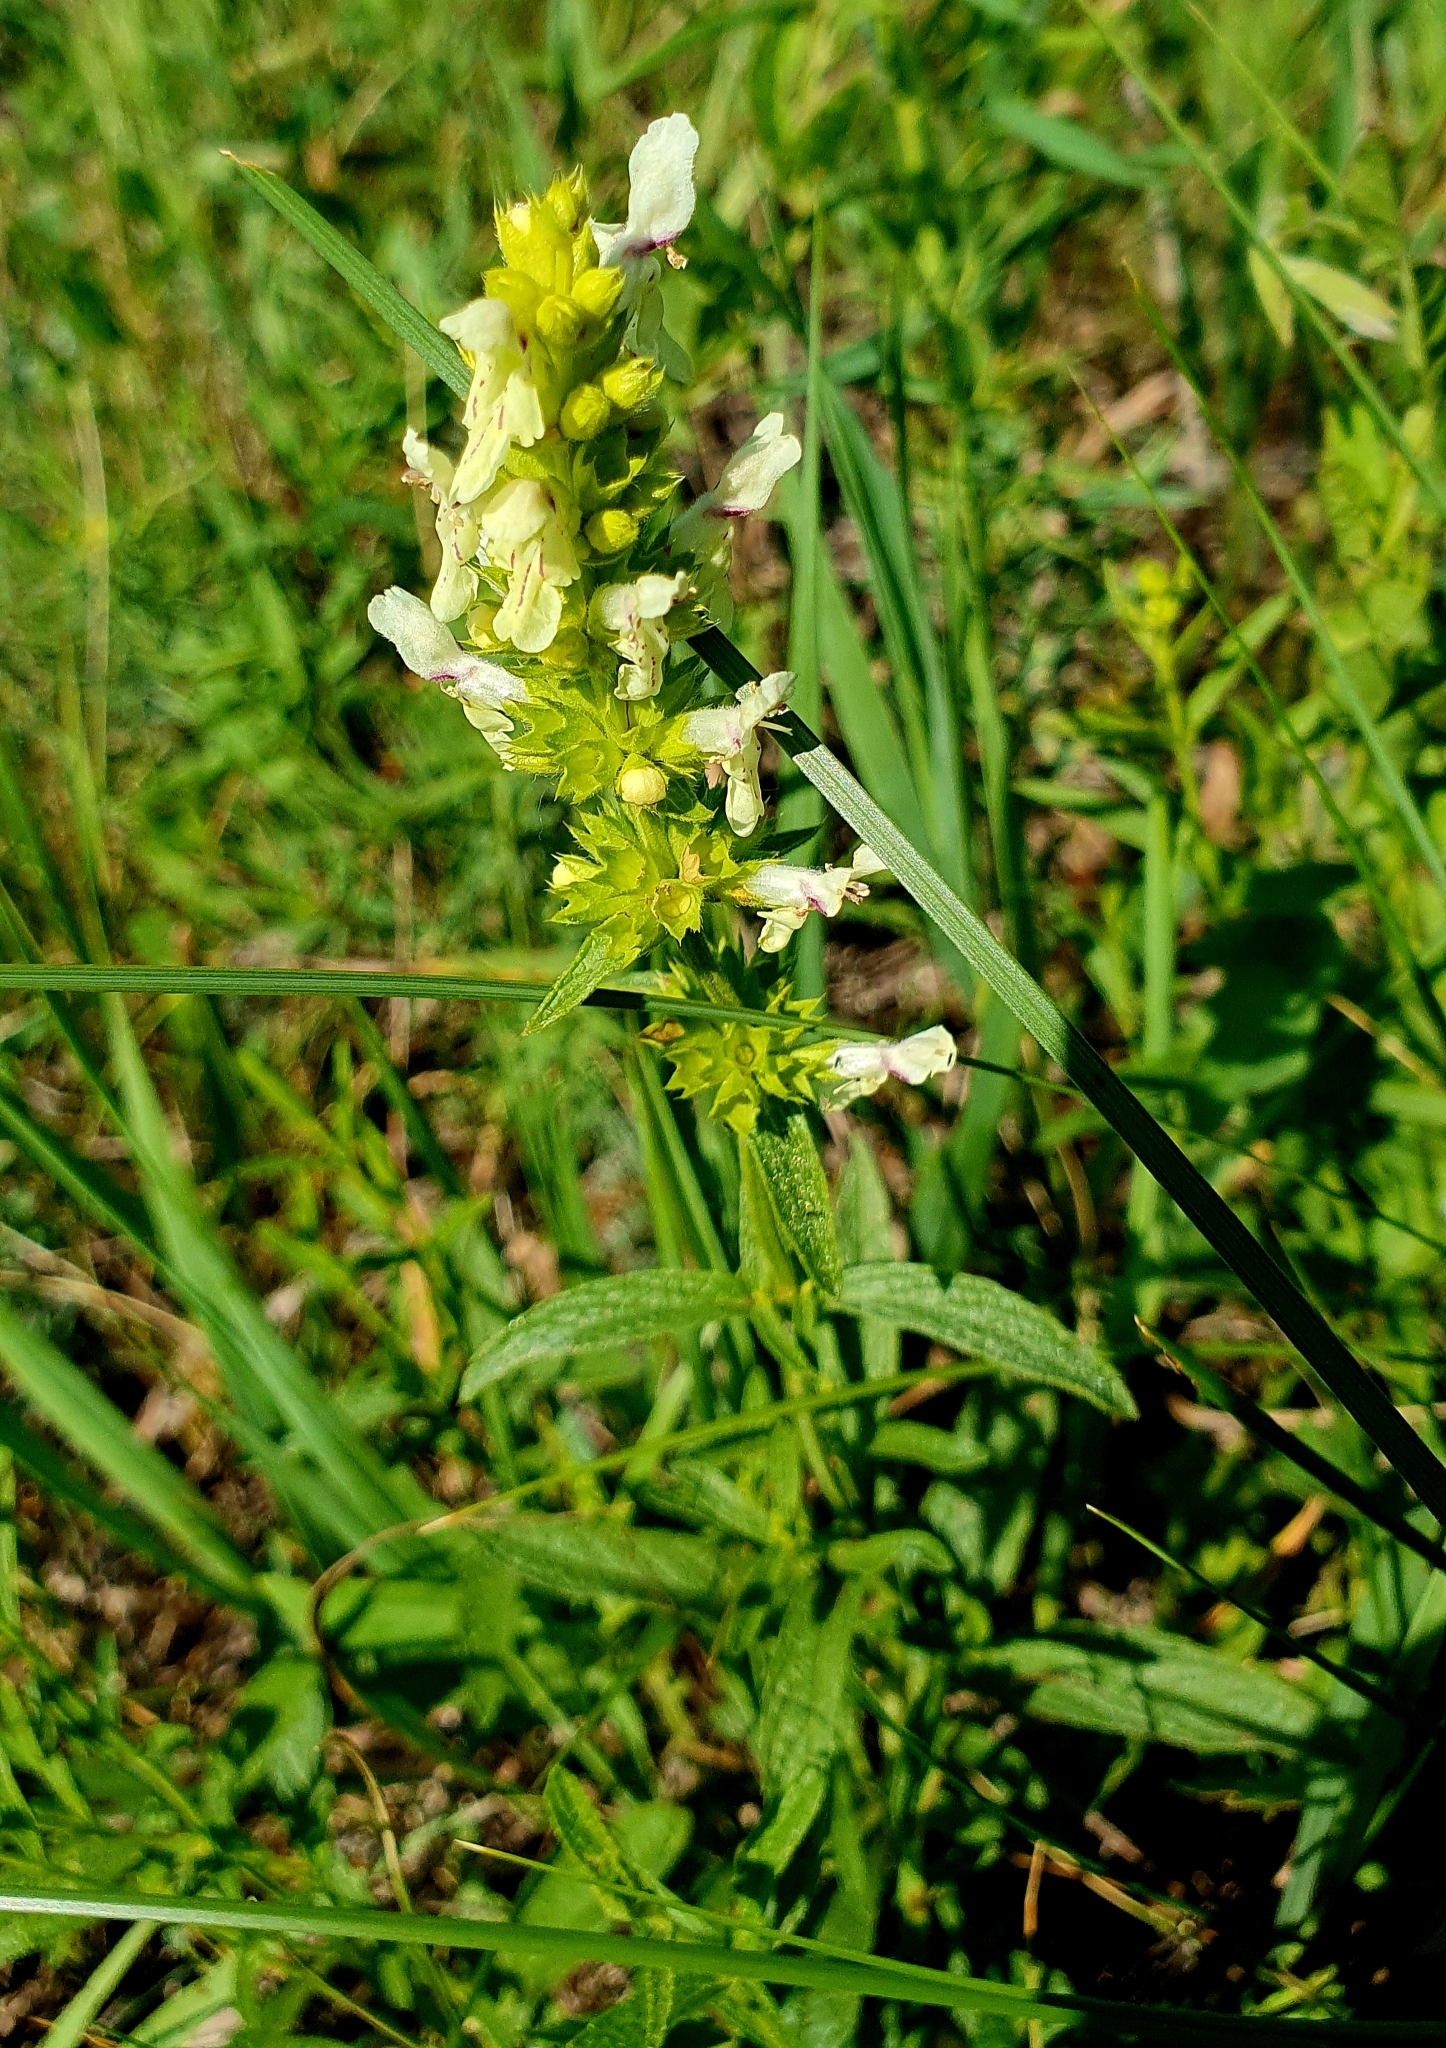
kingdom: Plantae
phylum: Tracheophyta
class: Magnoliopsida
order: Lamiales
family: Lamiaceae
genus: Stachys
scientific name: Stachys recta
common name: Perennial yellow-woundwort
